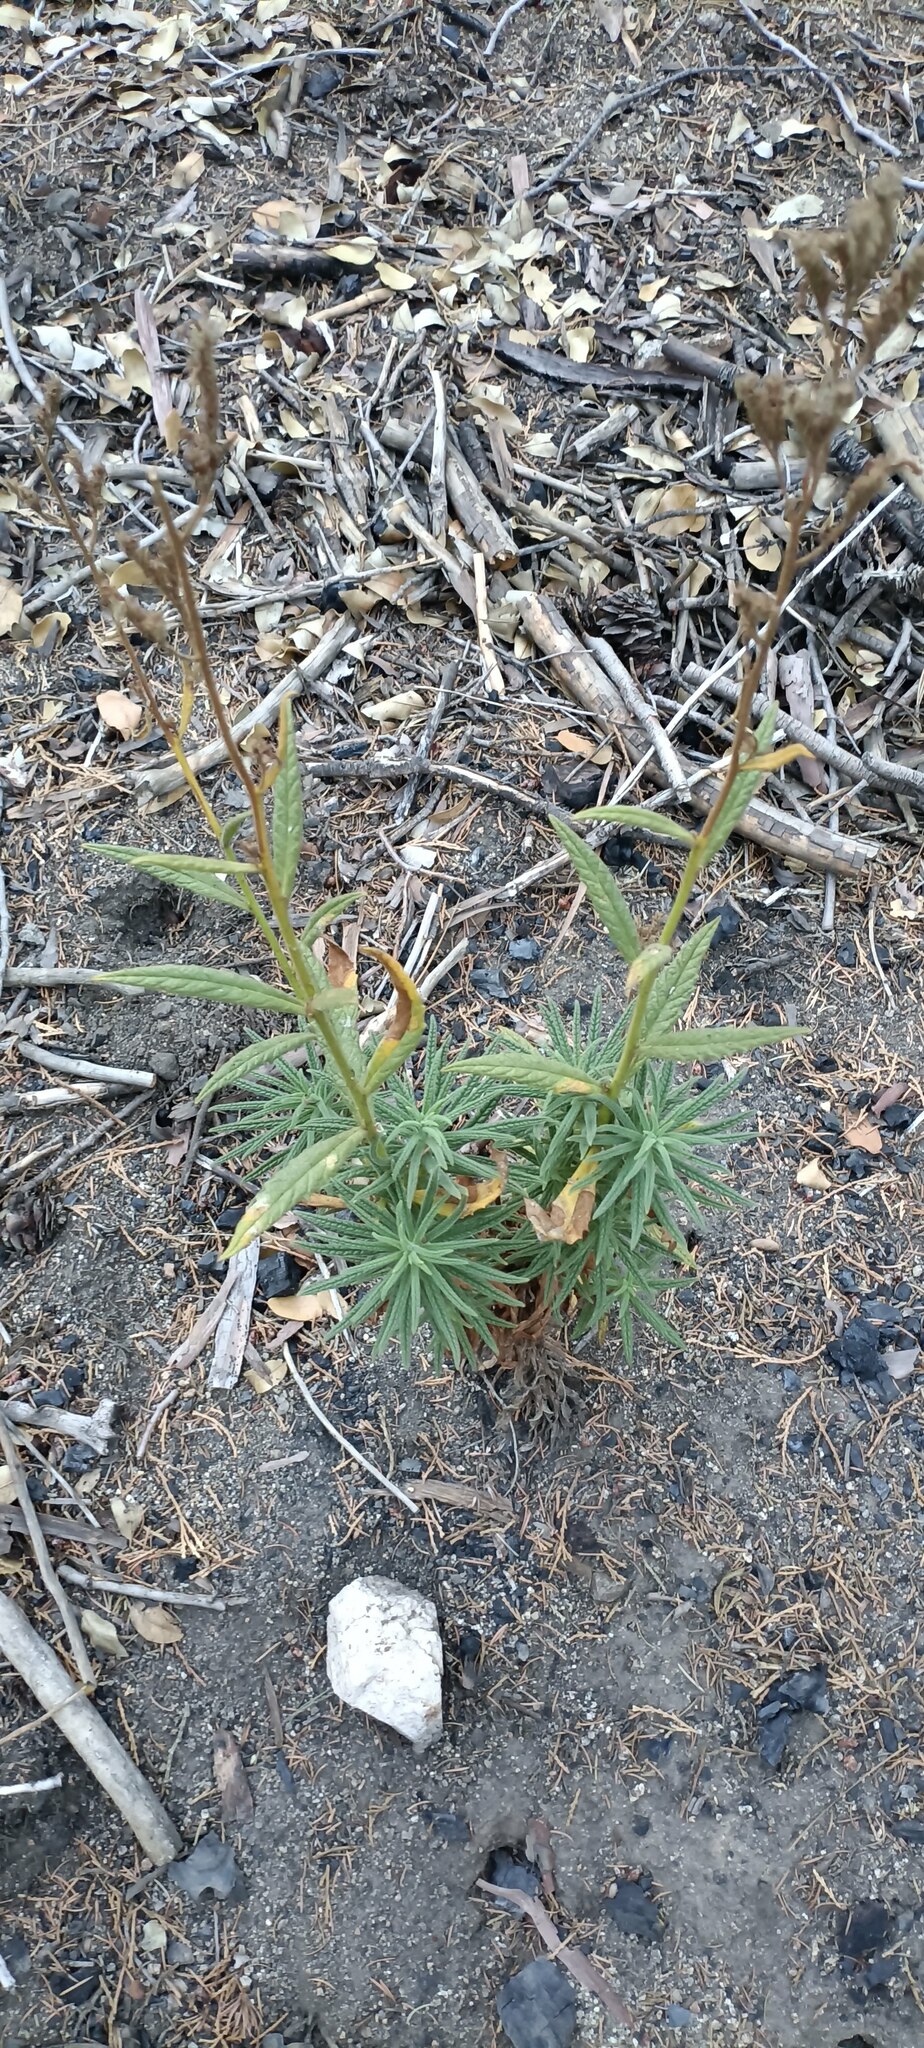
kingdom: Plantae
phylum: Tracheophyta
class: Magnoliopsida
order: Boraginales
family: Namaceae
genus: Turricula
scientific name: Turricula parryi
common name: Poodle-dog-bush
